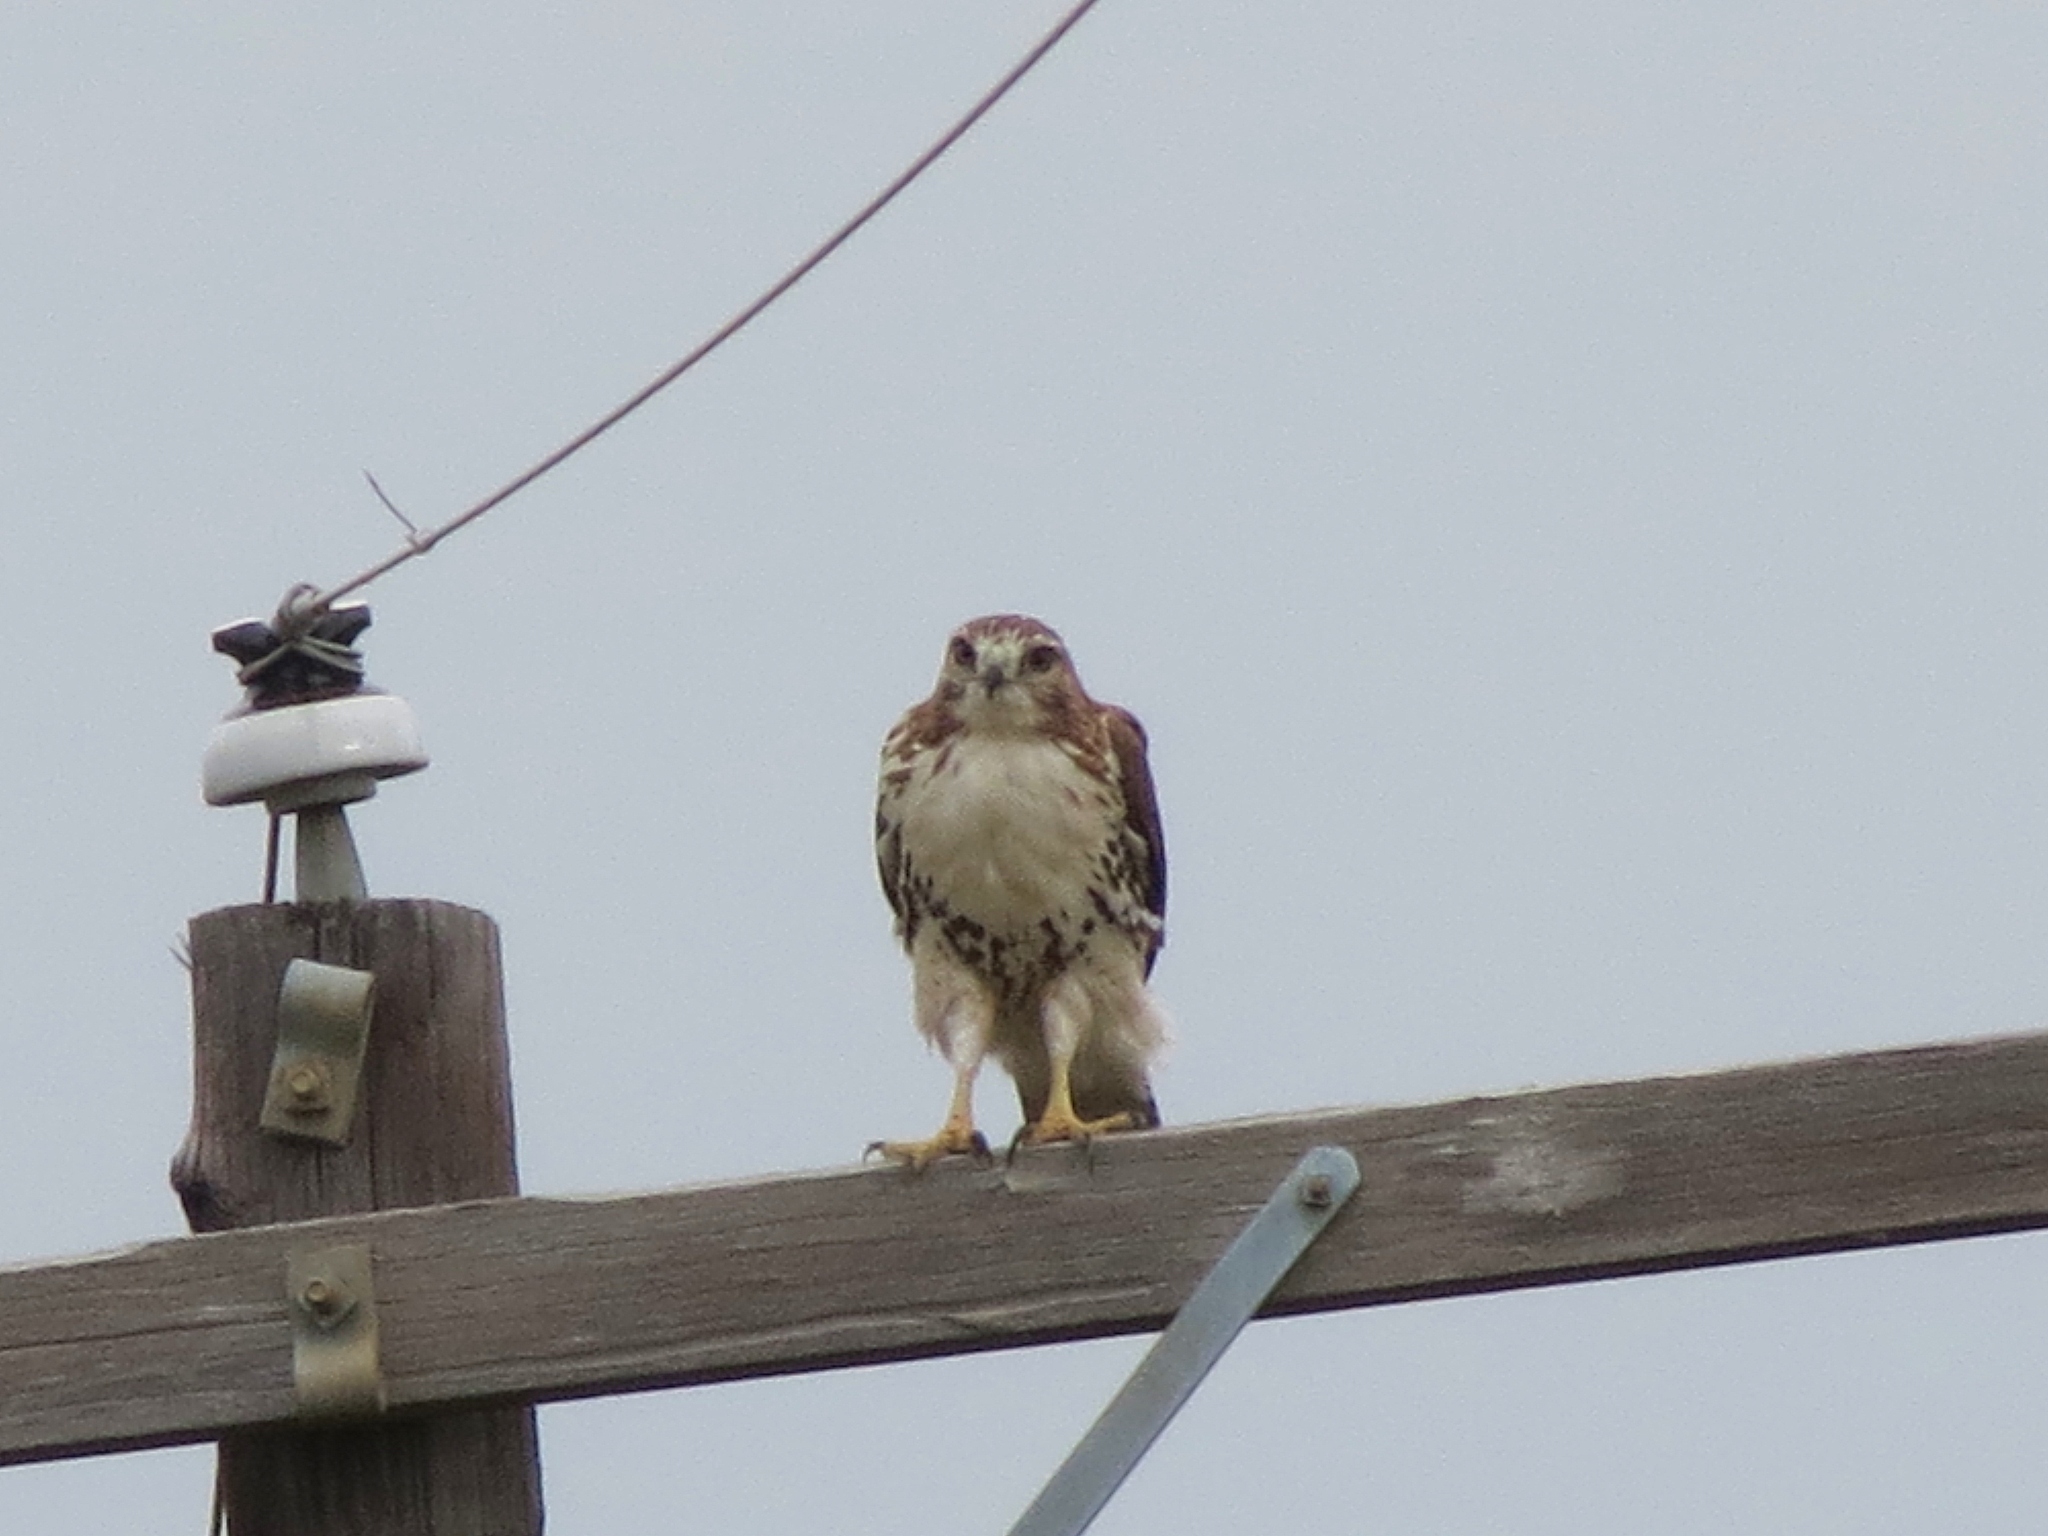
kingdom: Animalia
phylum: Chordata
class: Aves
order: Accipitriformes
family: Accipitridae
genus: Buteo
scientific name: Buteo jamaicensis
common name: Red-tailed hawk
